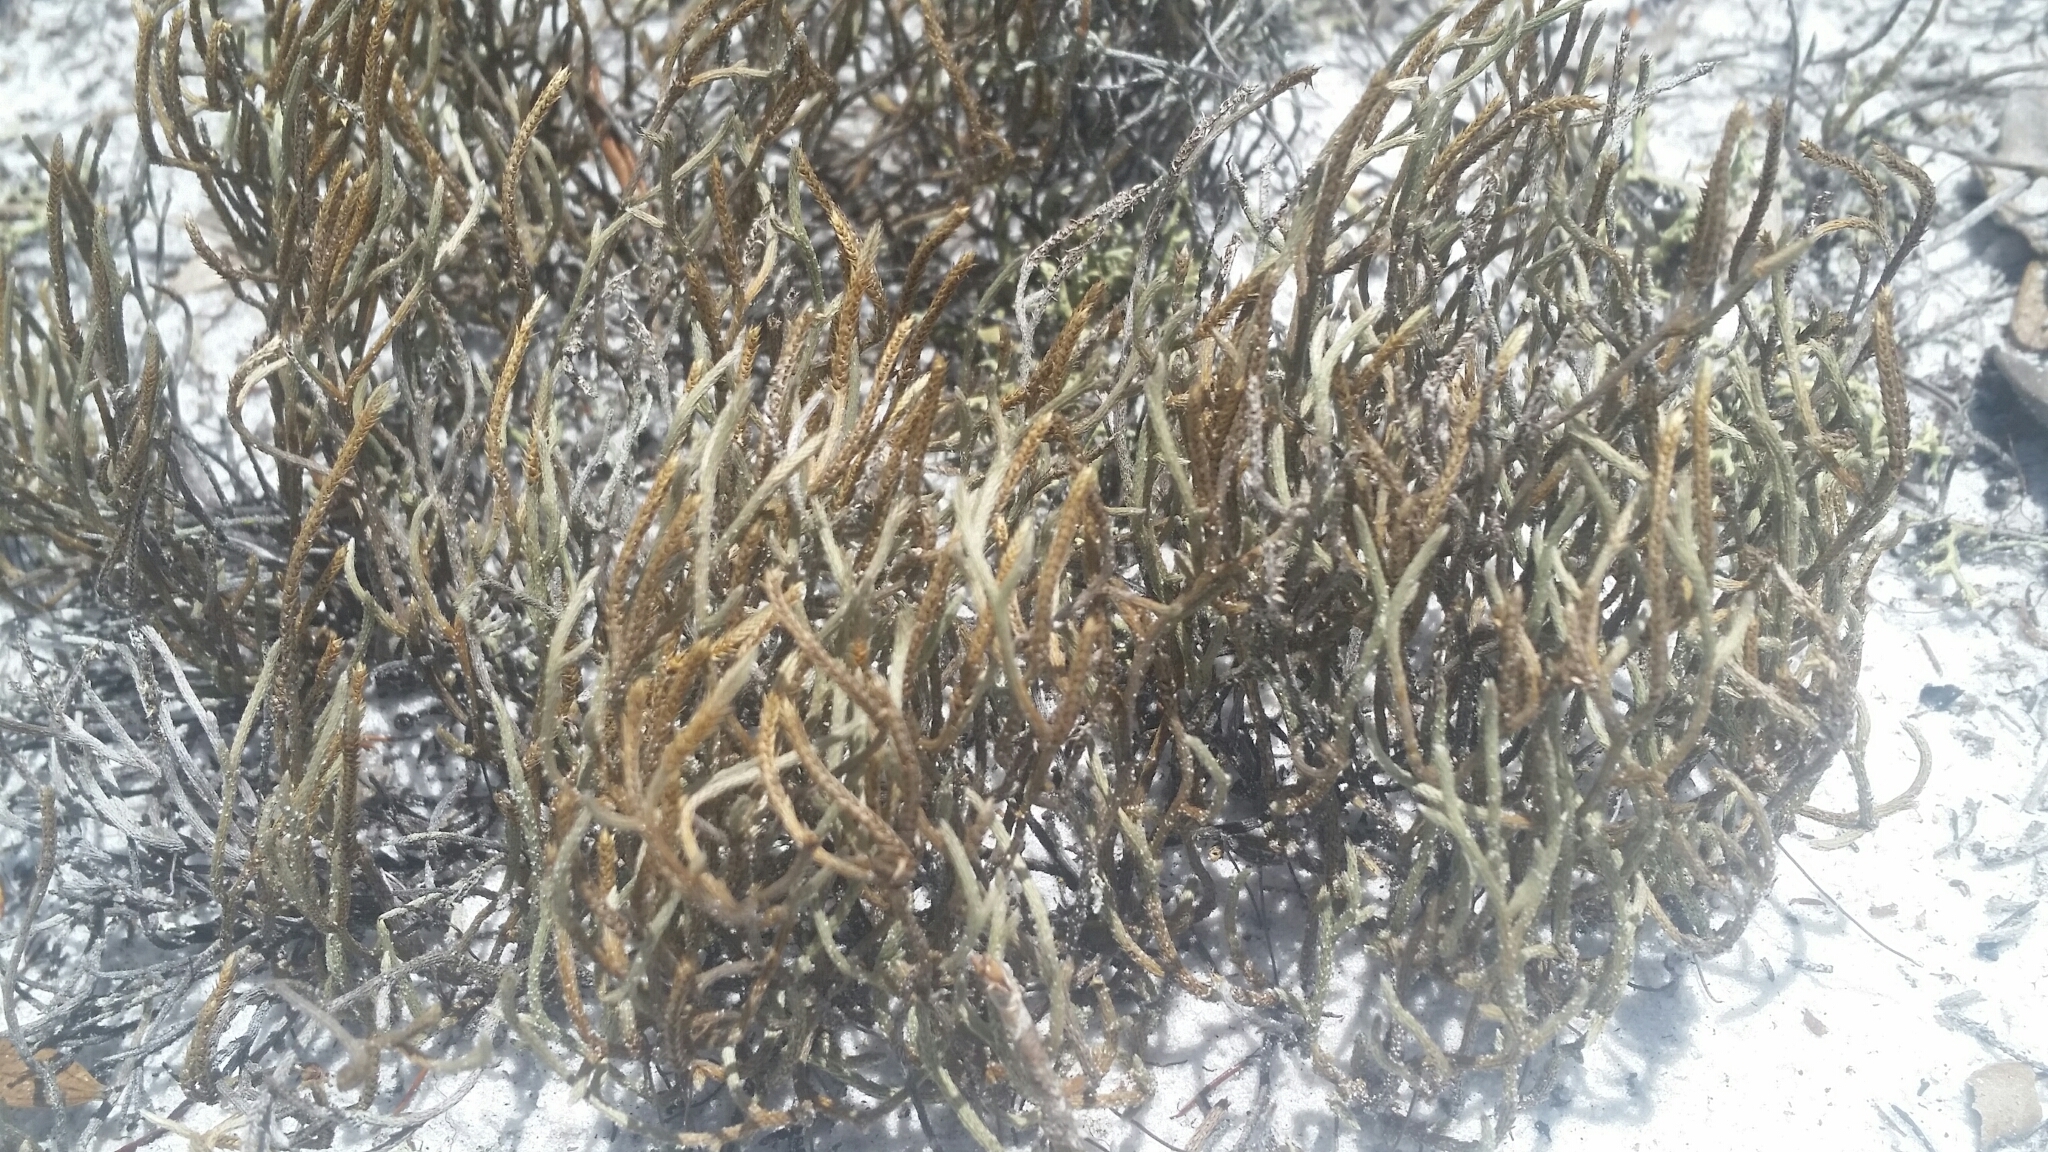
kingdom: Plantae
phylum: Tracheophyta
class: Lycopodiopsida
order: Selaginellales
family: Selaginellaceae
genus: Selaginella
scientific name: Selaginella arenicola
